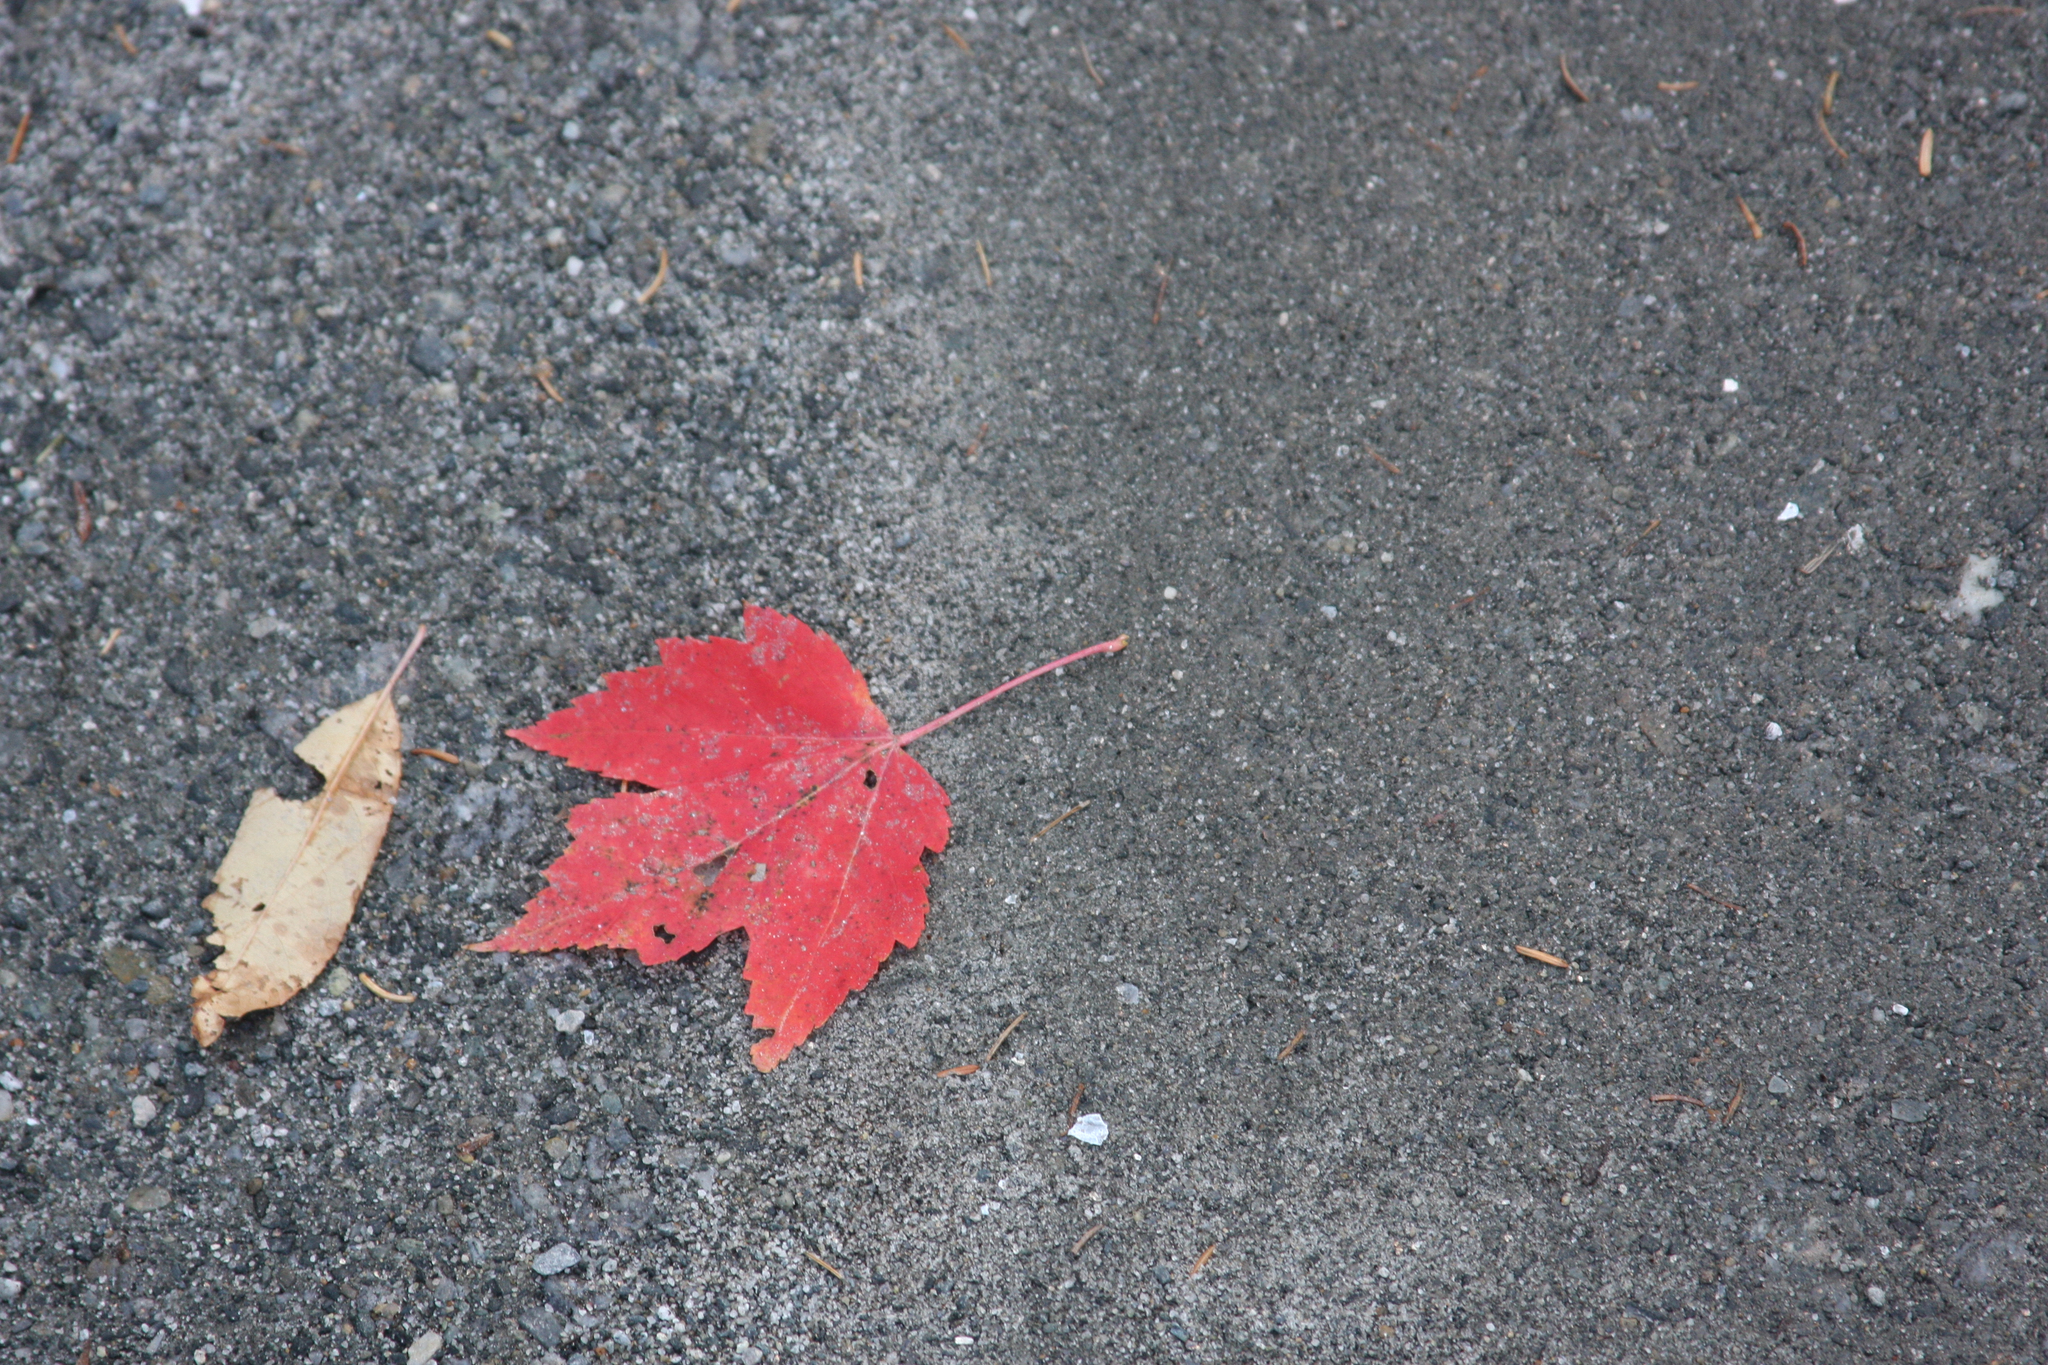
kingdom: Plantae
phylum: Tracheophyta
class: Magnoliopsida
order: Sapindales
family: Sapindaceae
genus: Acer
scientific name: Acer rubrum
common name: Red maple
